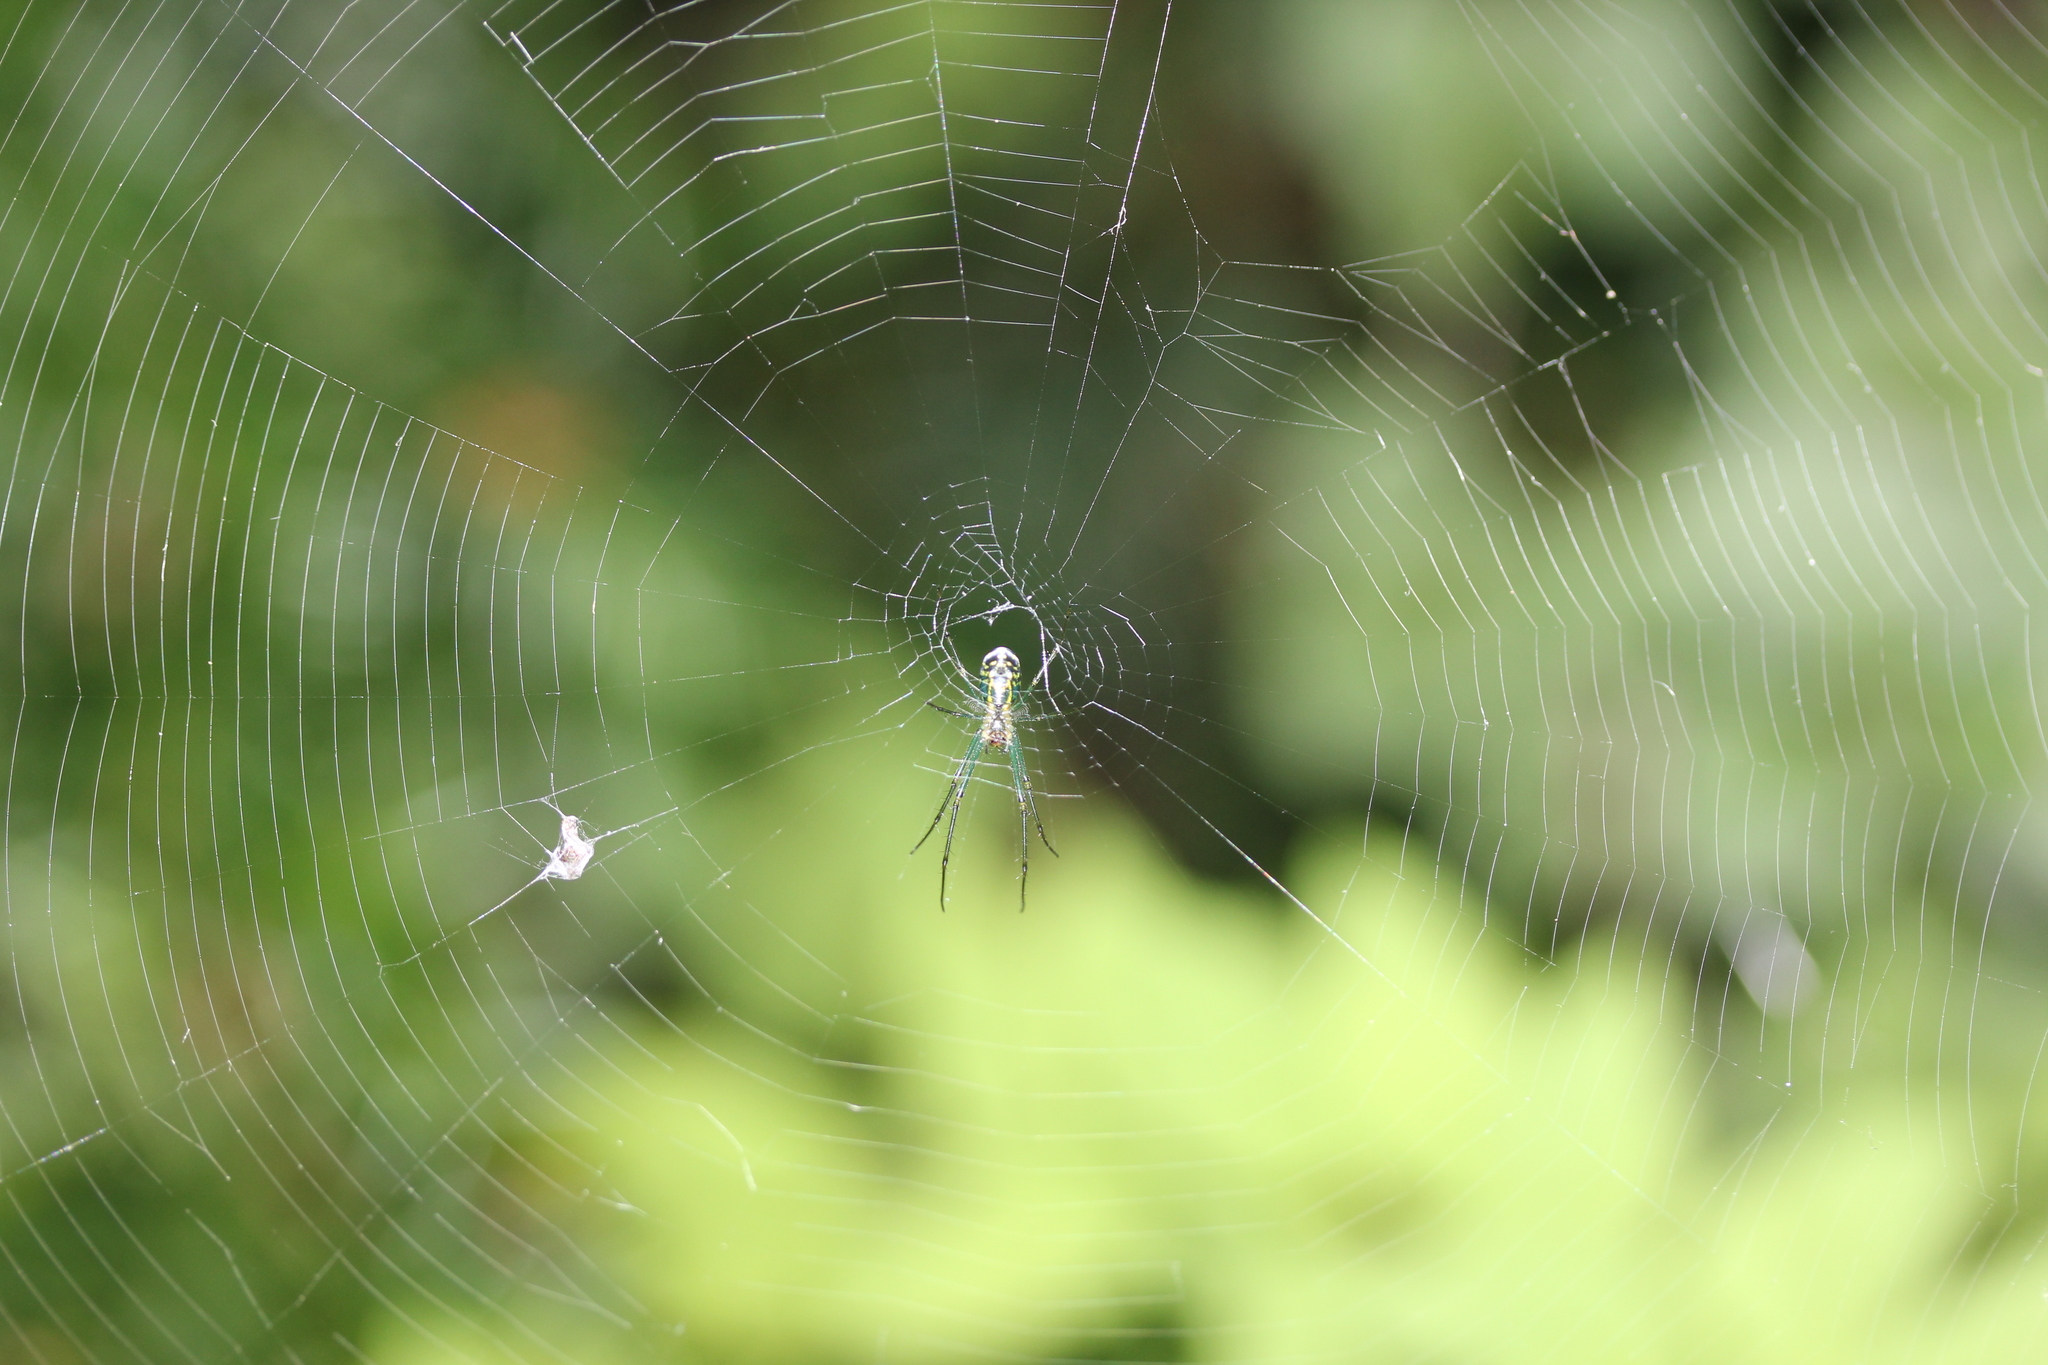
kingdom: Animalia
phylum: Arthropoda
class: Arachnida
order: Araneae
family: Tetragnathidae
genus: Leucauge
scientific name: Leucauge venusta
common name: Longjawed orb weavers
